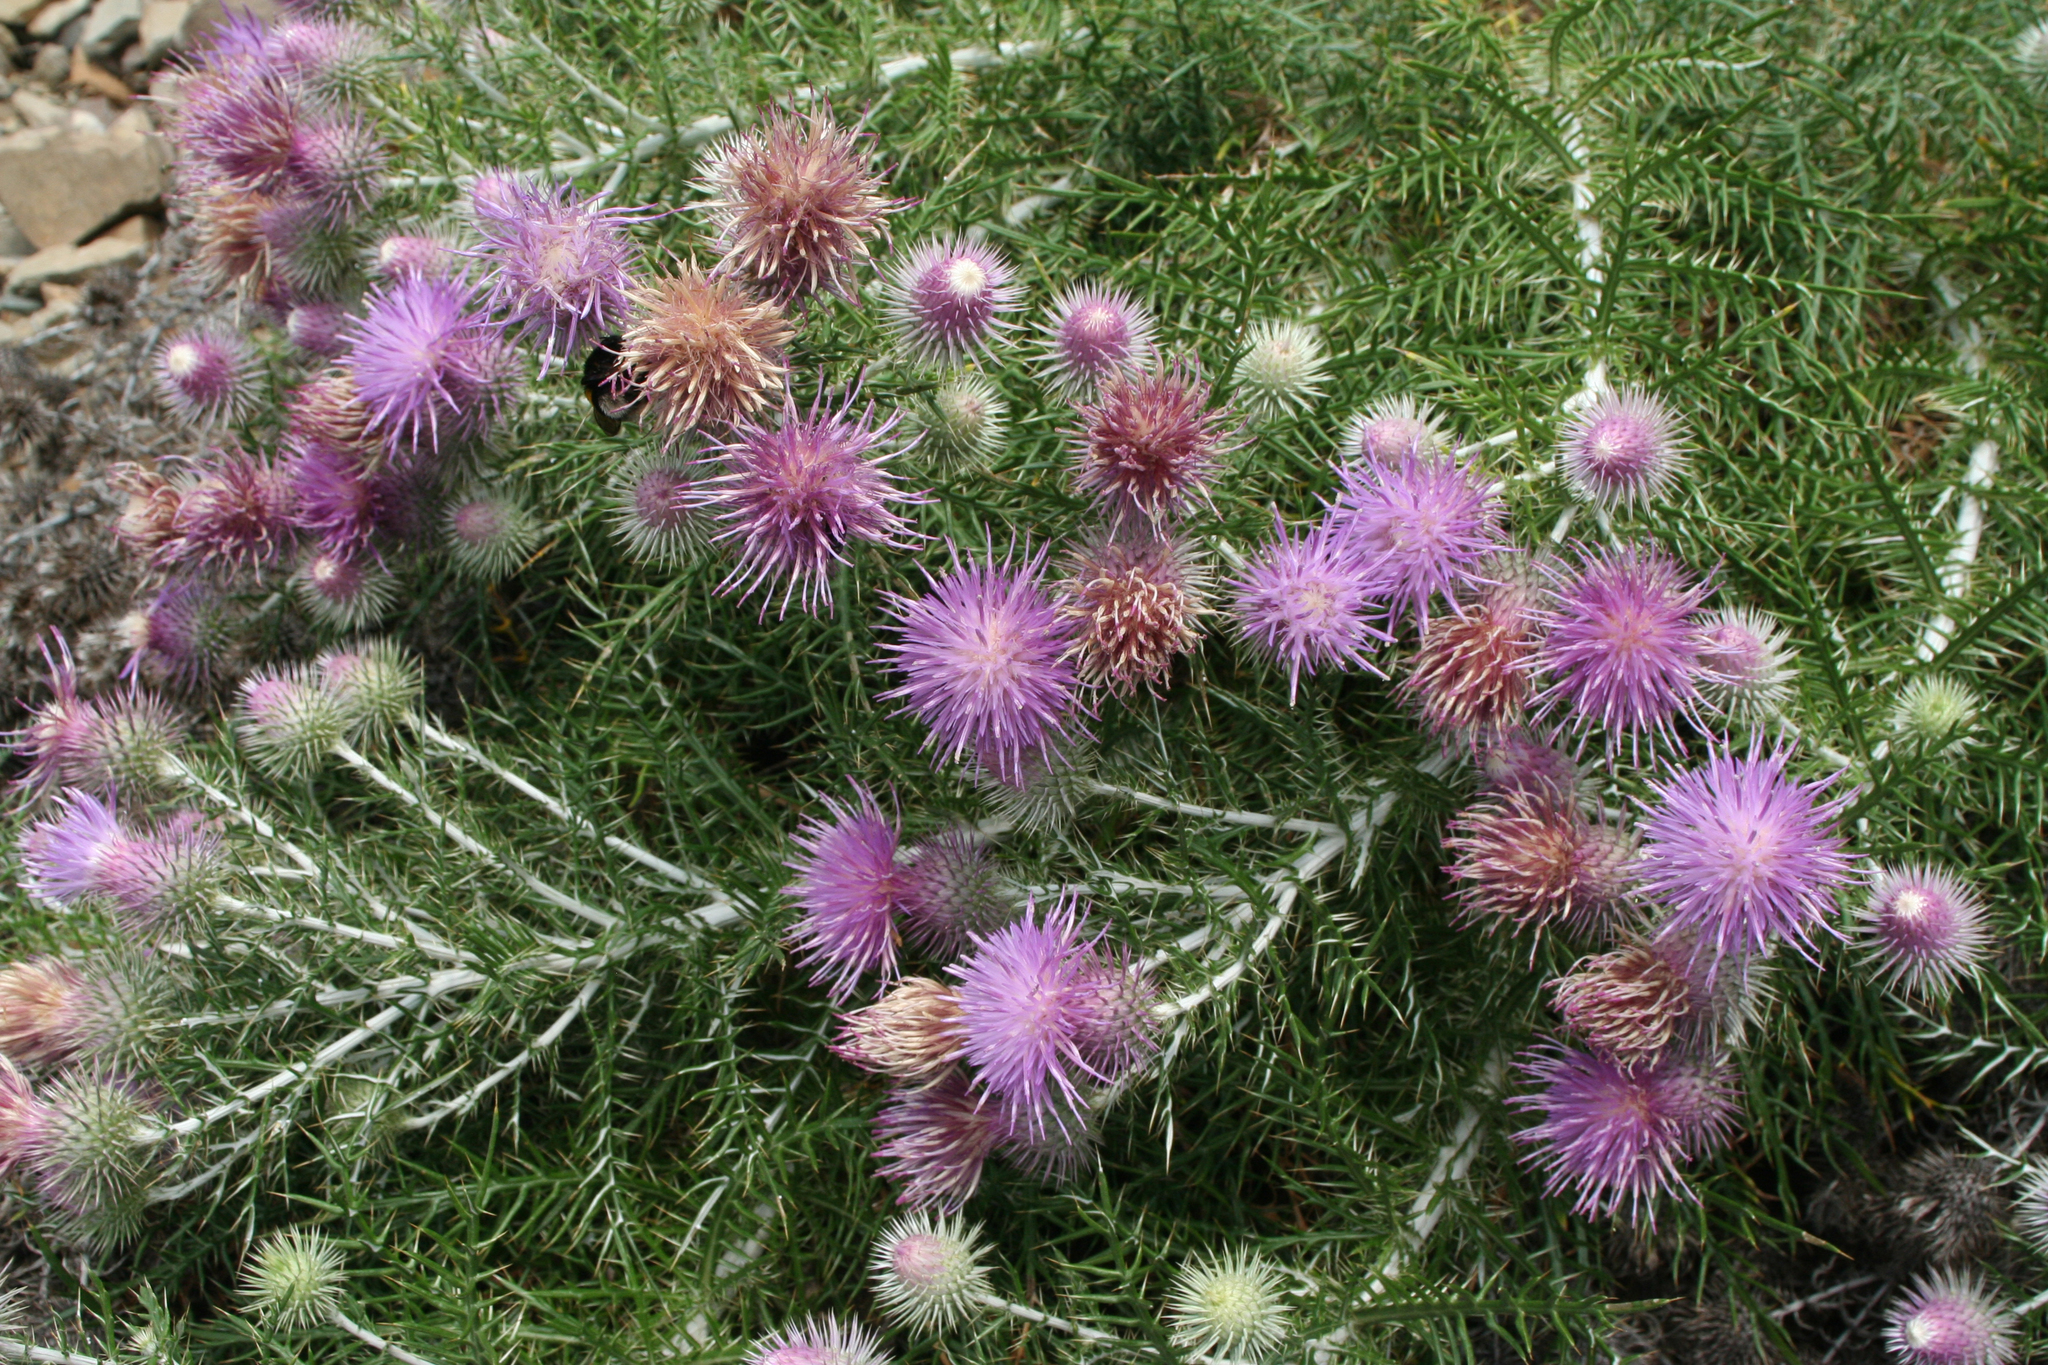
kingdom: Plantae
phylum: Tracheophyta
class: Magnoliopsida
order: Asterales
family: Asteraceae
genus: Ptilostemon
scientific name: Ptilostemon echinocephalus
